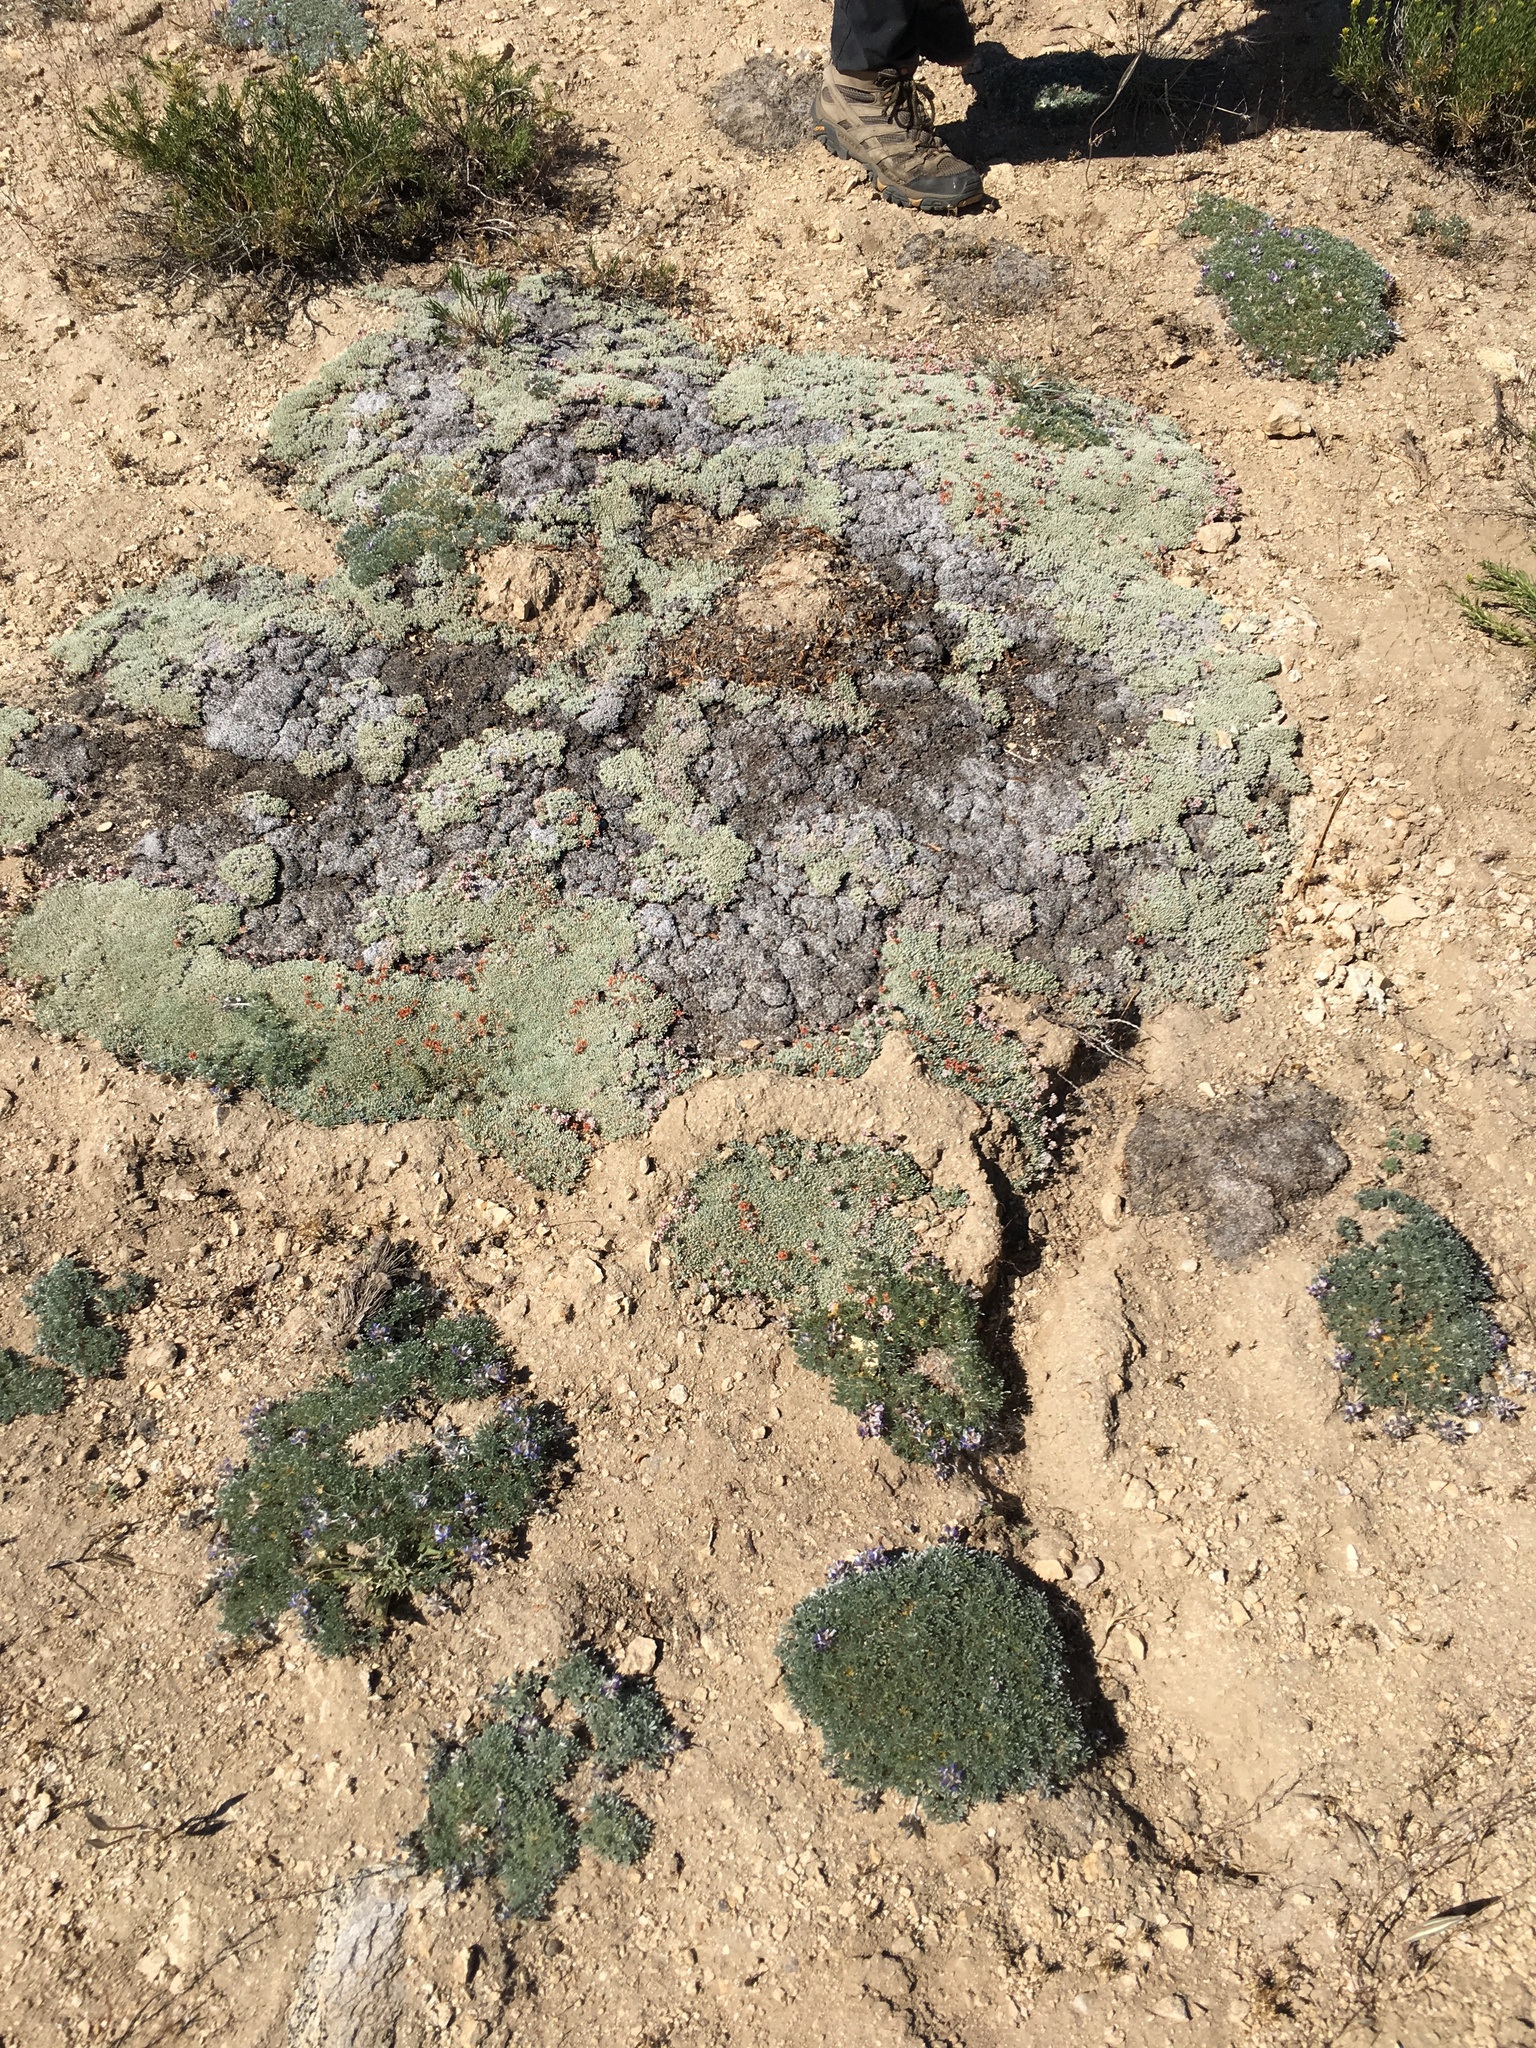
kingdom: Plantae
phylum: Tracheophyta
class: Magnoliopsida
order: Caryophyllales
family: Polygonaceae
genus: Eriogonum
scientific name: Eriogonum kennedyi
